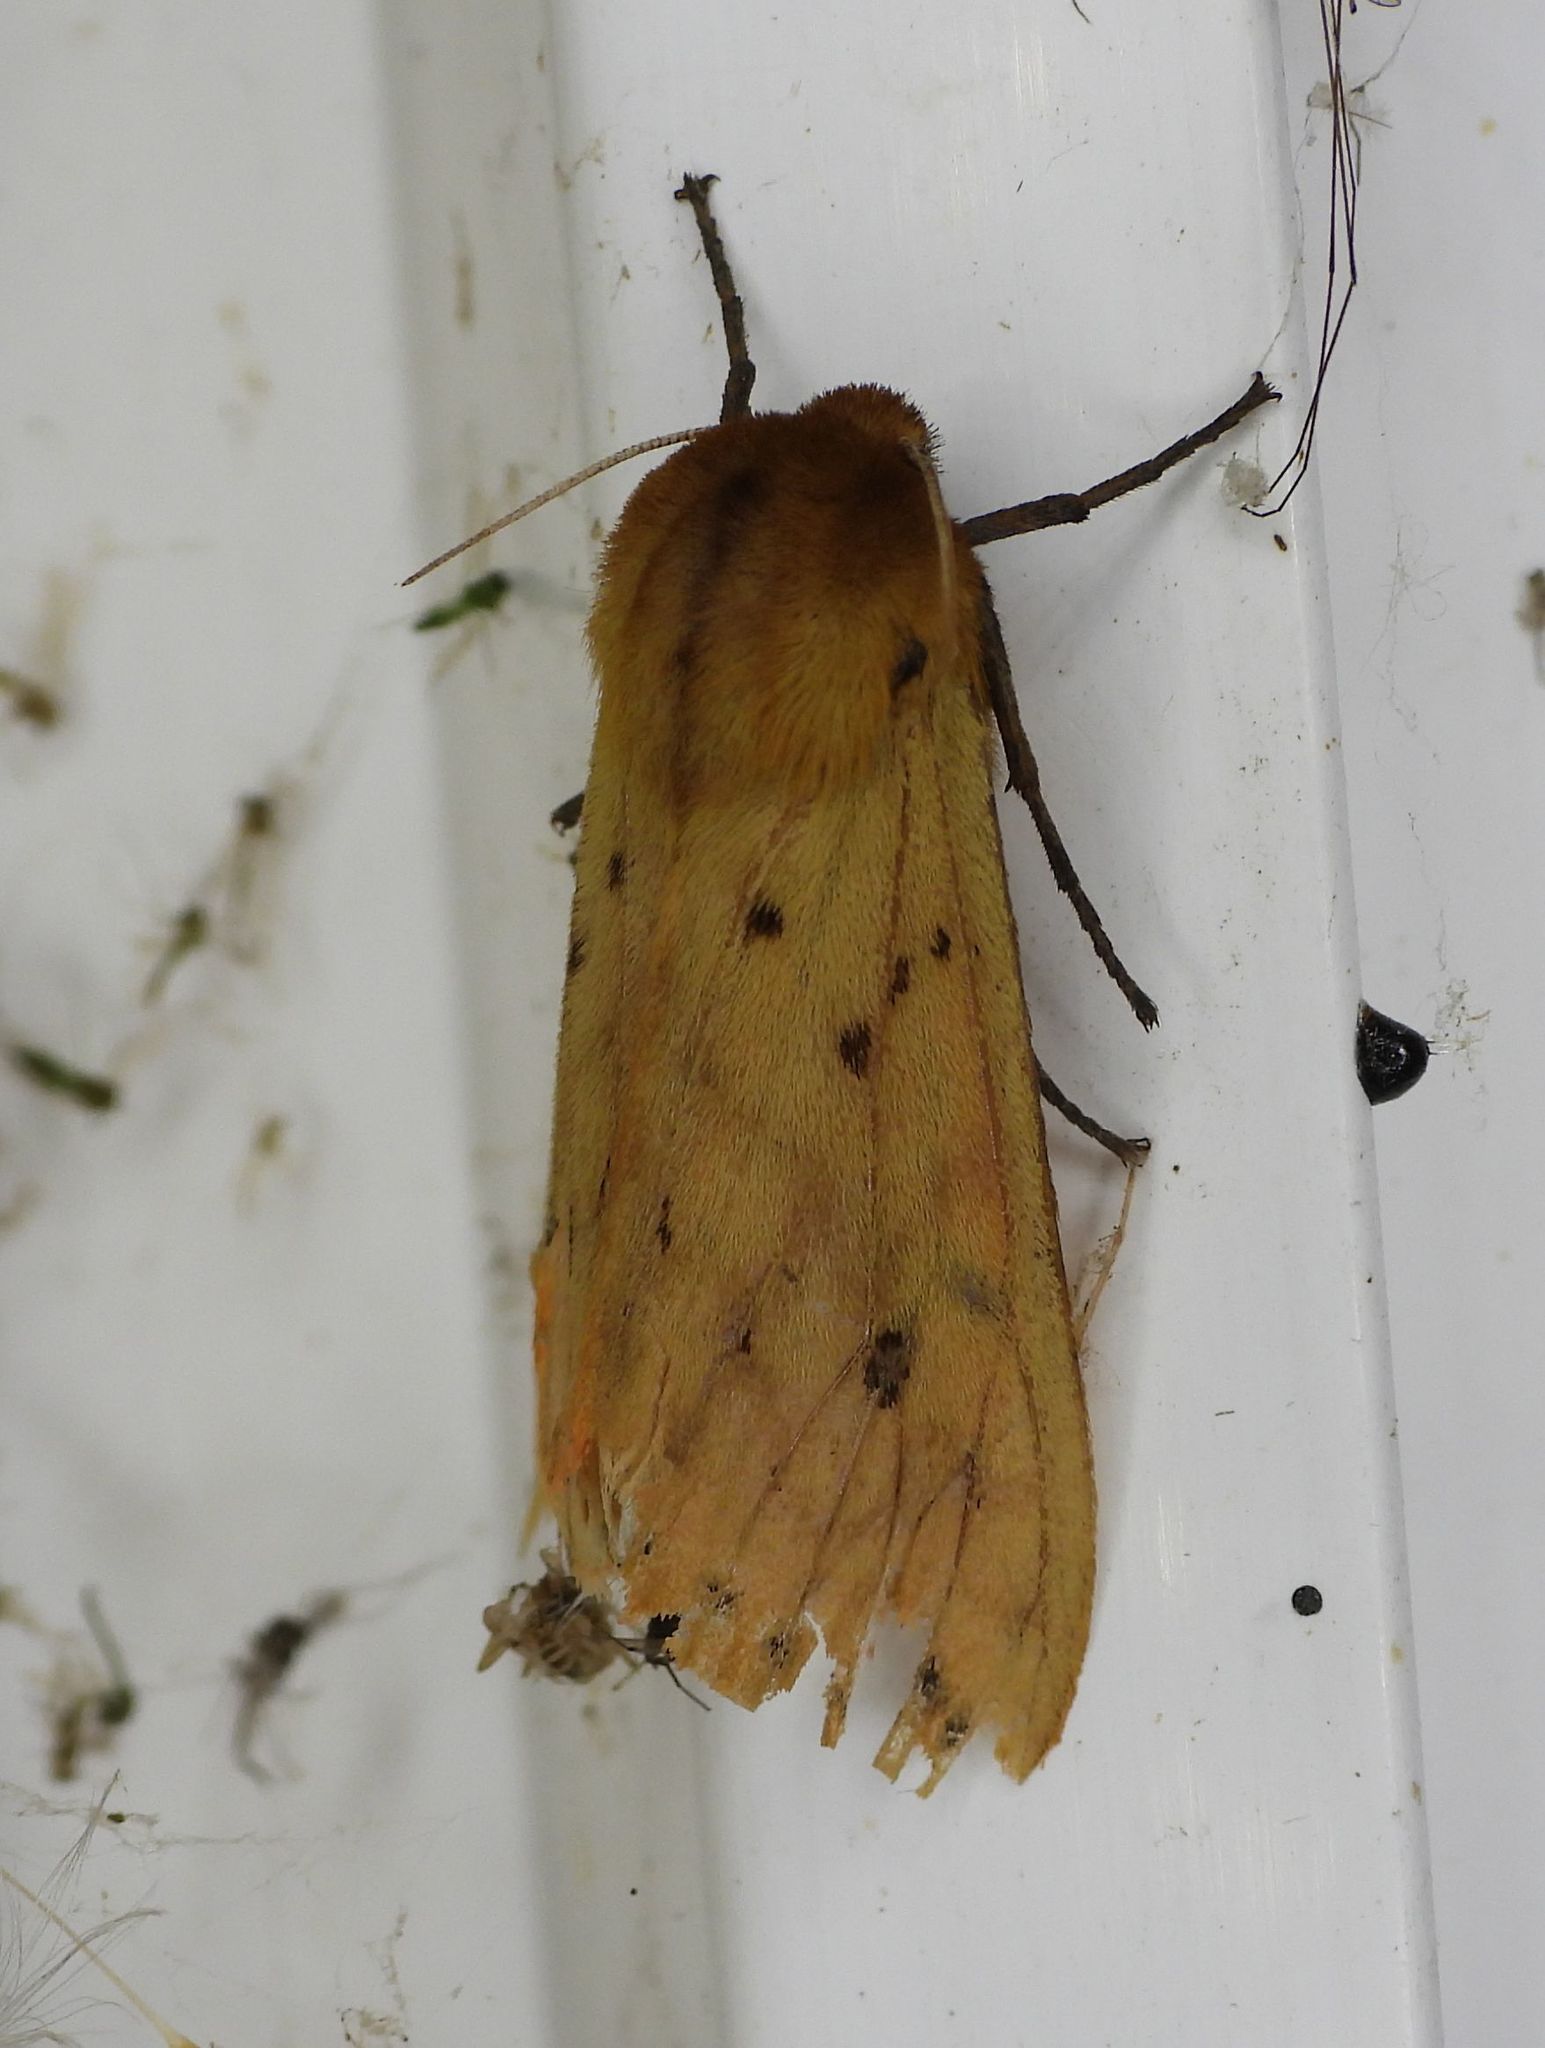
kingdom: Animalia
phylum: Arthropoda
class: Insecta
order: Lepidoptera
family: Erebidae
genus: Pyrrharctia
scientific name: Pyrrharctia isabella
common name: Isabella tiger moth
